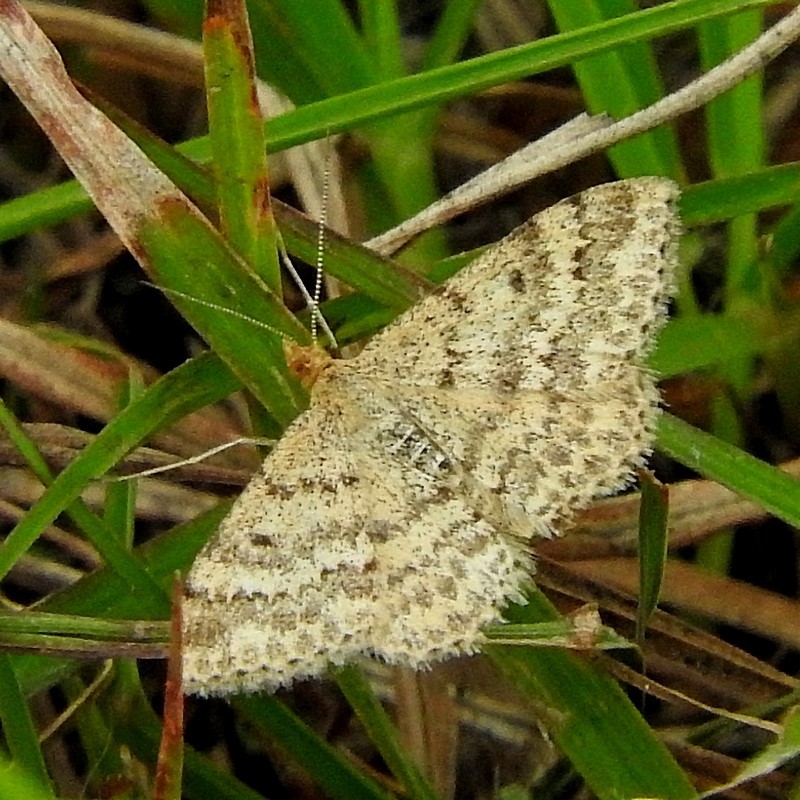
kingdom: Animalia
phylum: Arthropoda
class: Insecta
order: Lepidoptera
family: Geometridae
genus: Scopula
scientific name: Scopula rubraria
